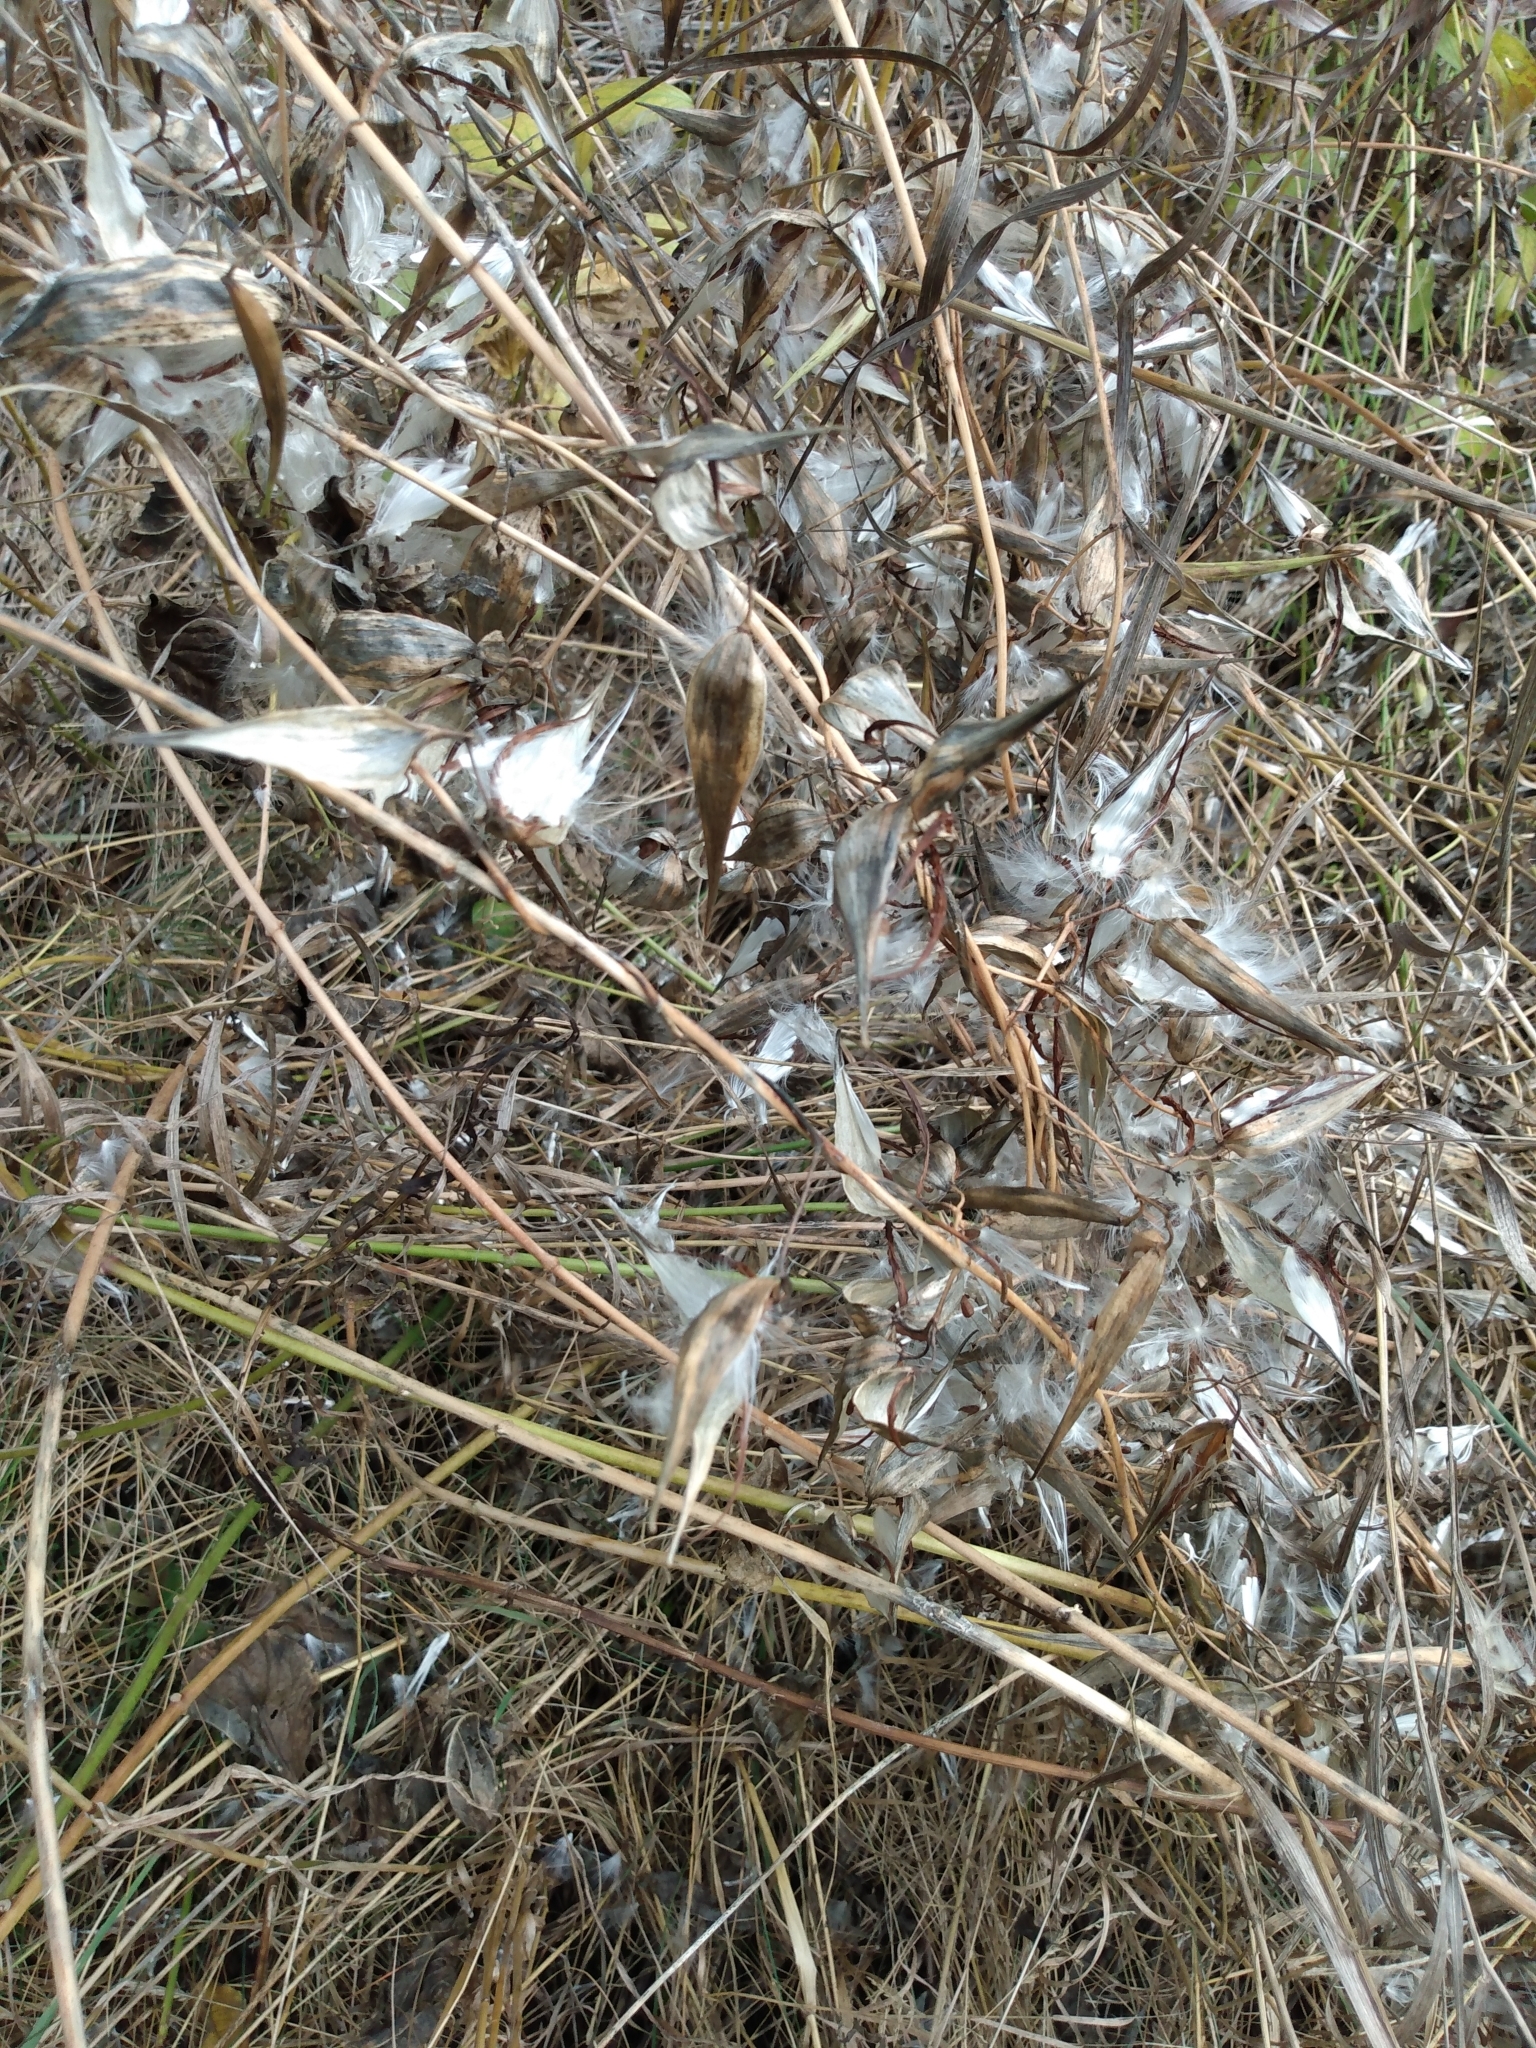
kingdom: Plantae
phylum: Tracheophyta
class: Magnoliopsida
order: Gentianales
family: Apocynaceae
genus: Vincetoxicum
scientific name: Vincetoxicum rossicum
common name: Dog-strangling vine
